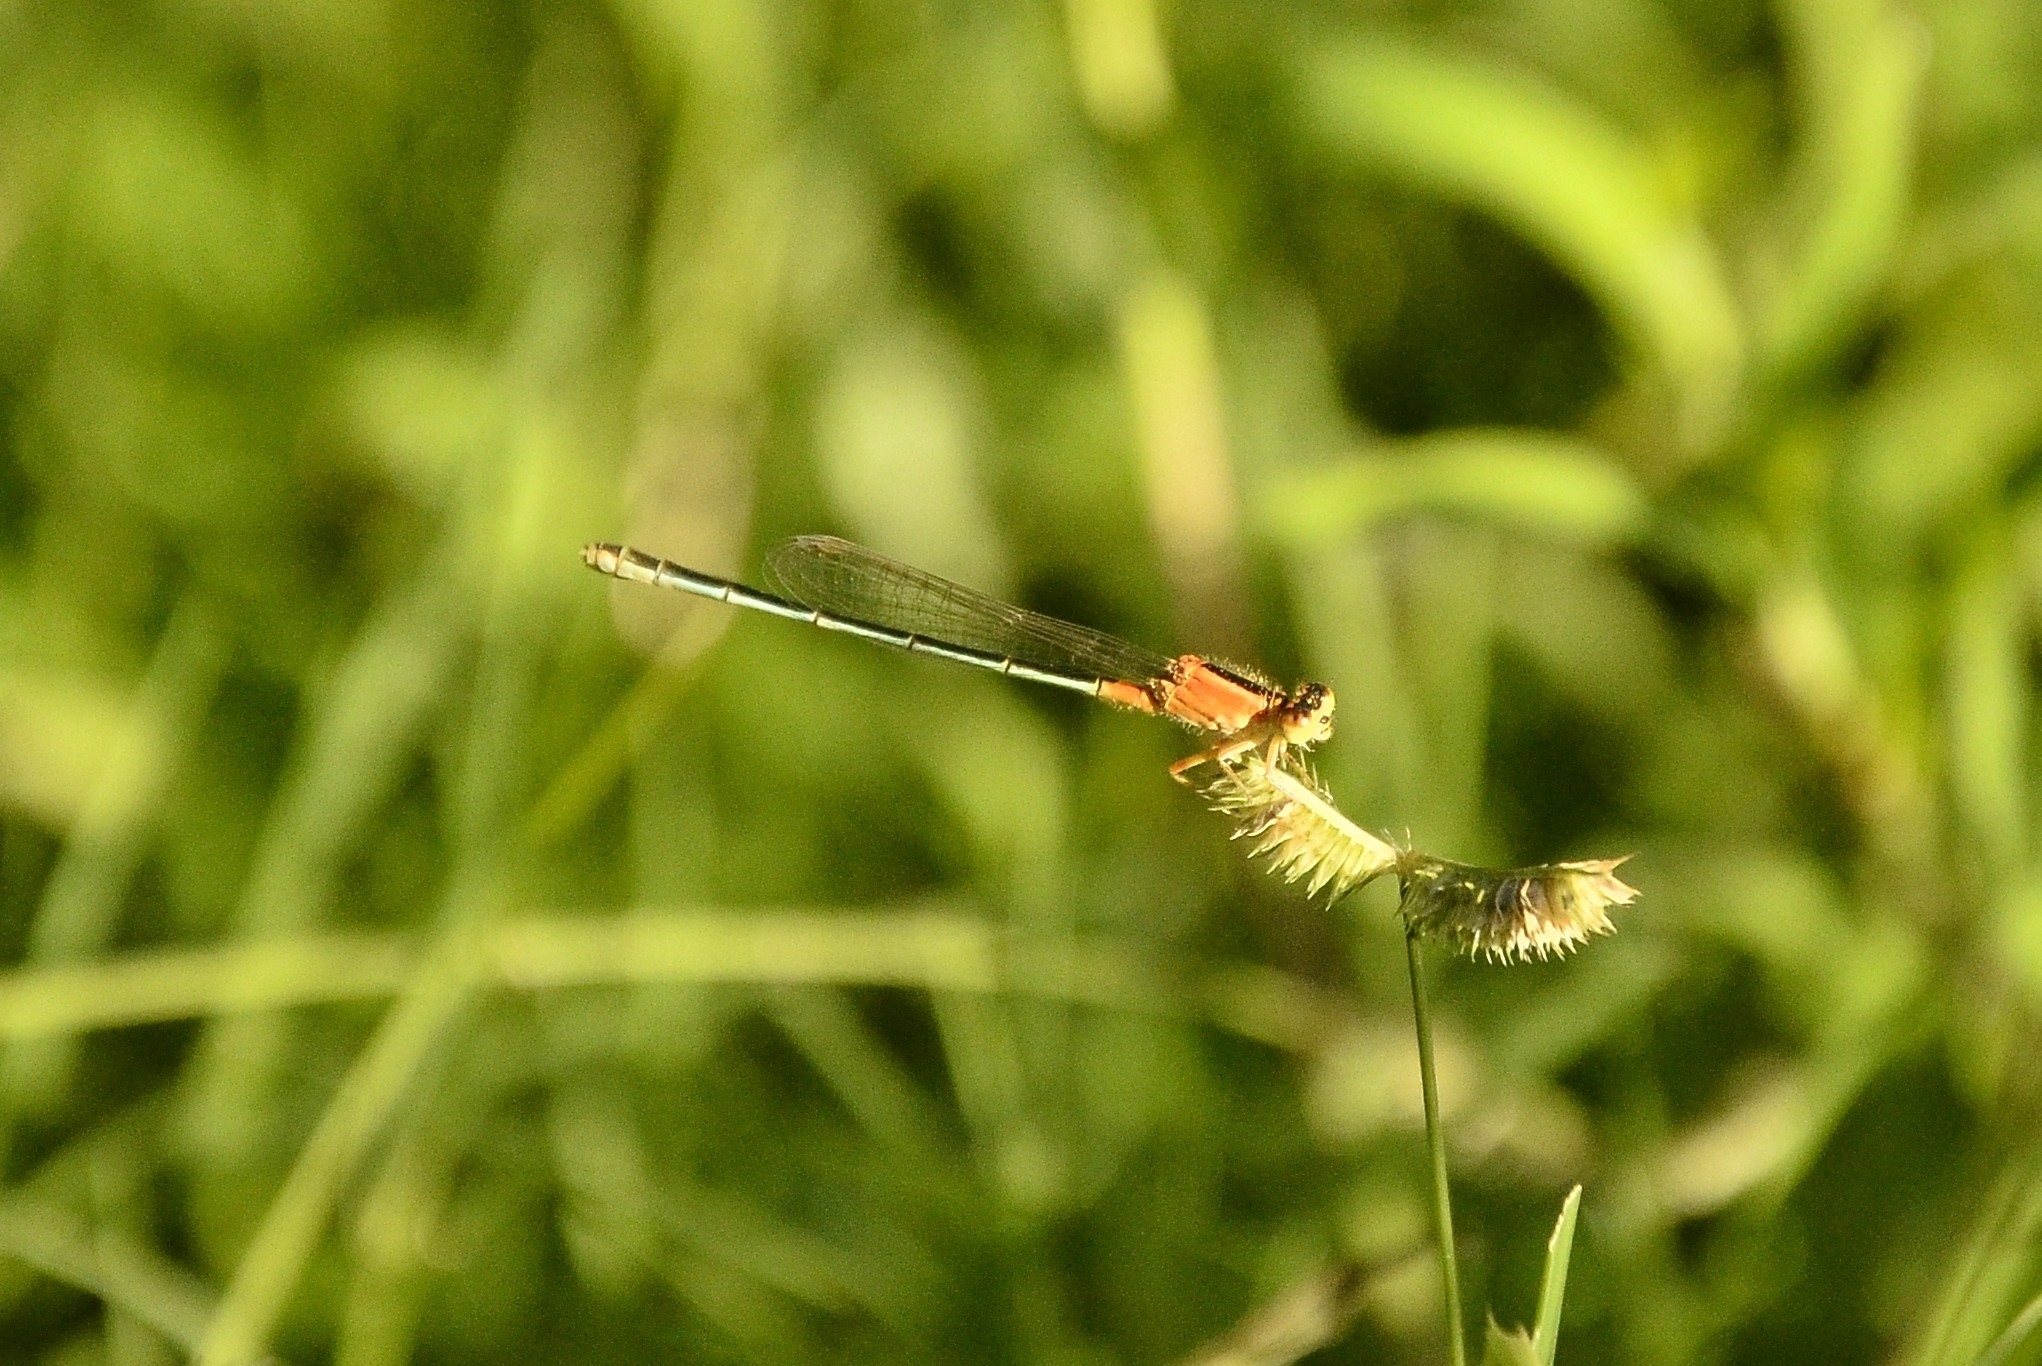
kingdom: Animalia
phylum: Arthropoda
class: Insecta
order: Odonata
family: Coenagrionidae
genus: Ischnura
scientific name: Ischnura senegalensis
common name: Tropical bluetail
